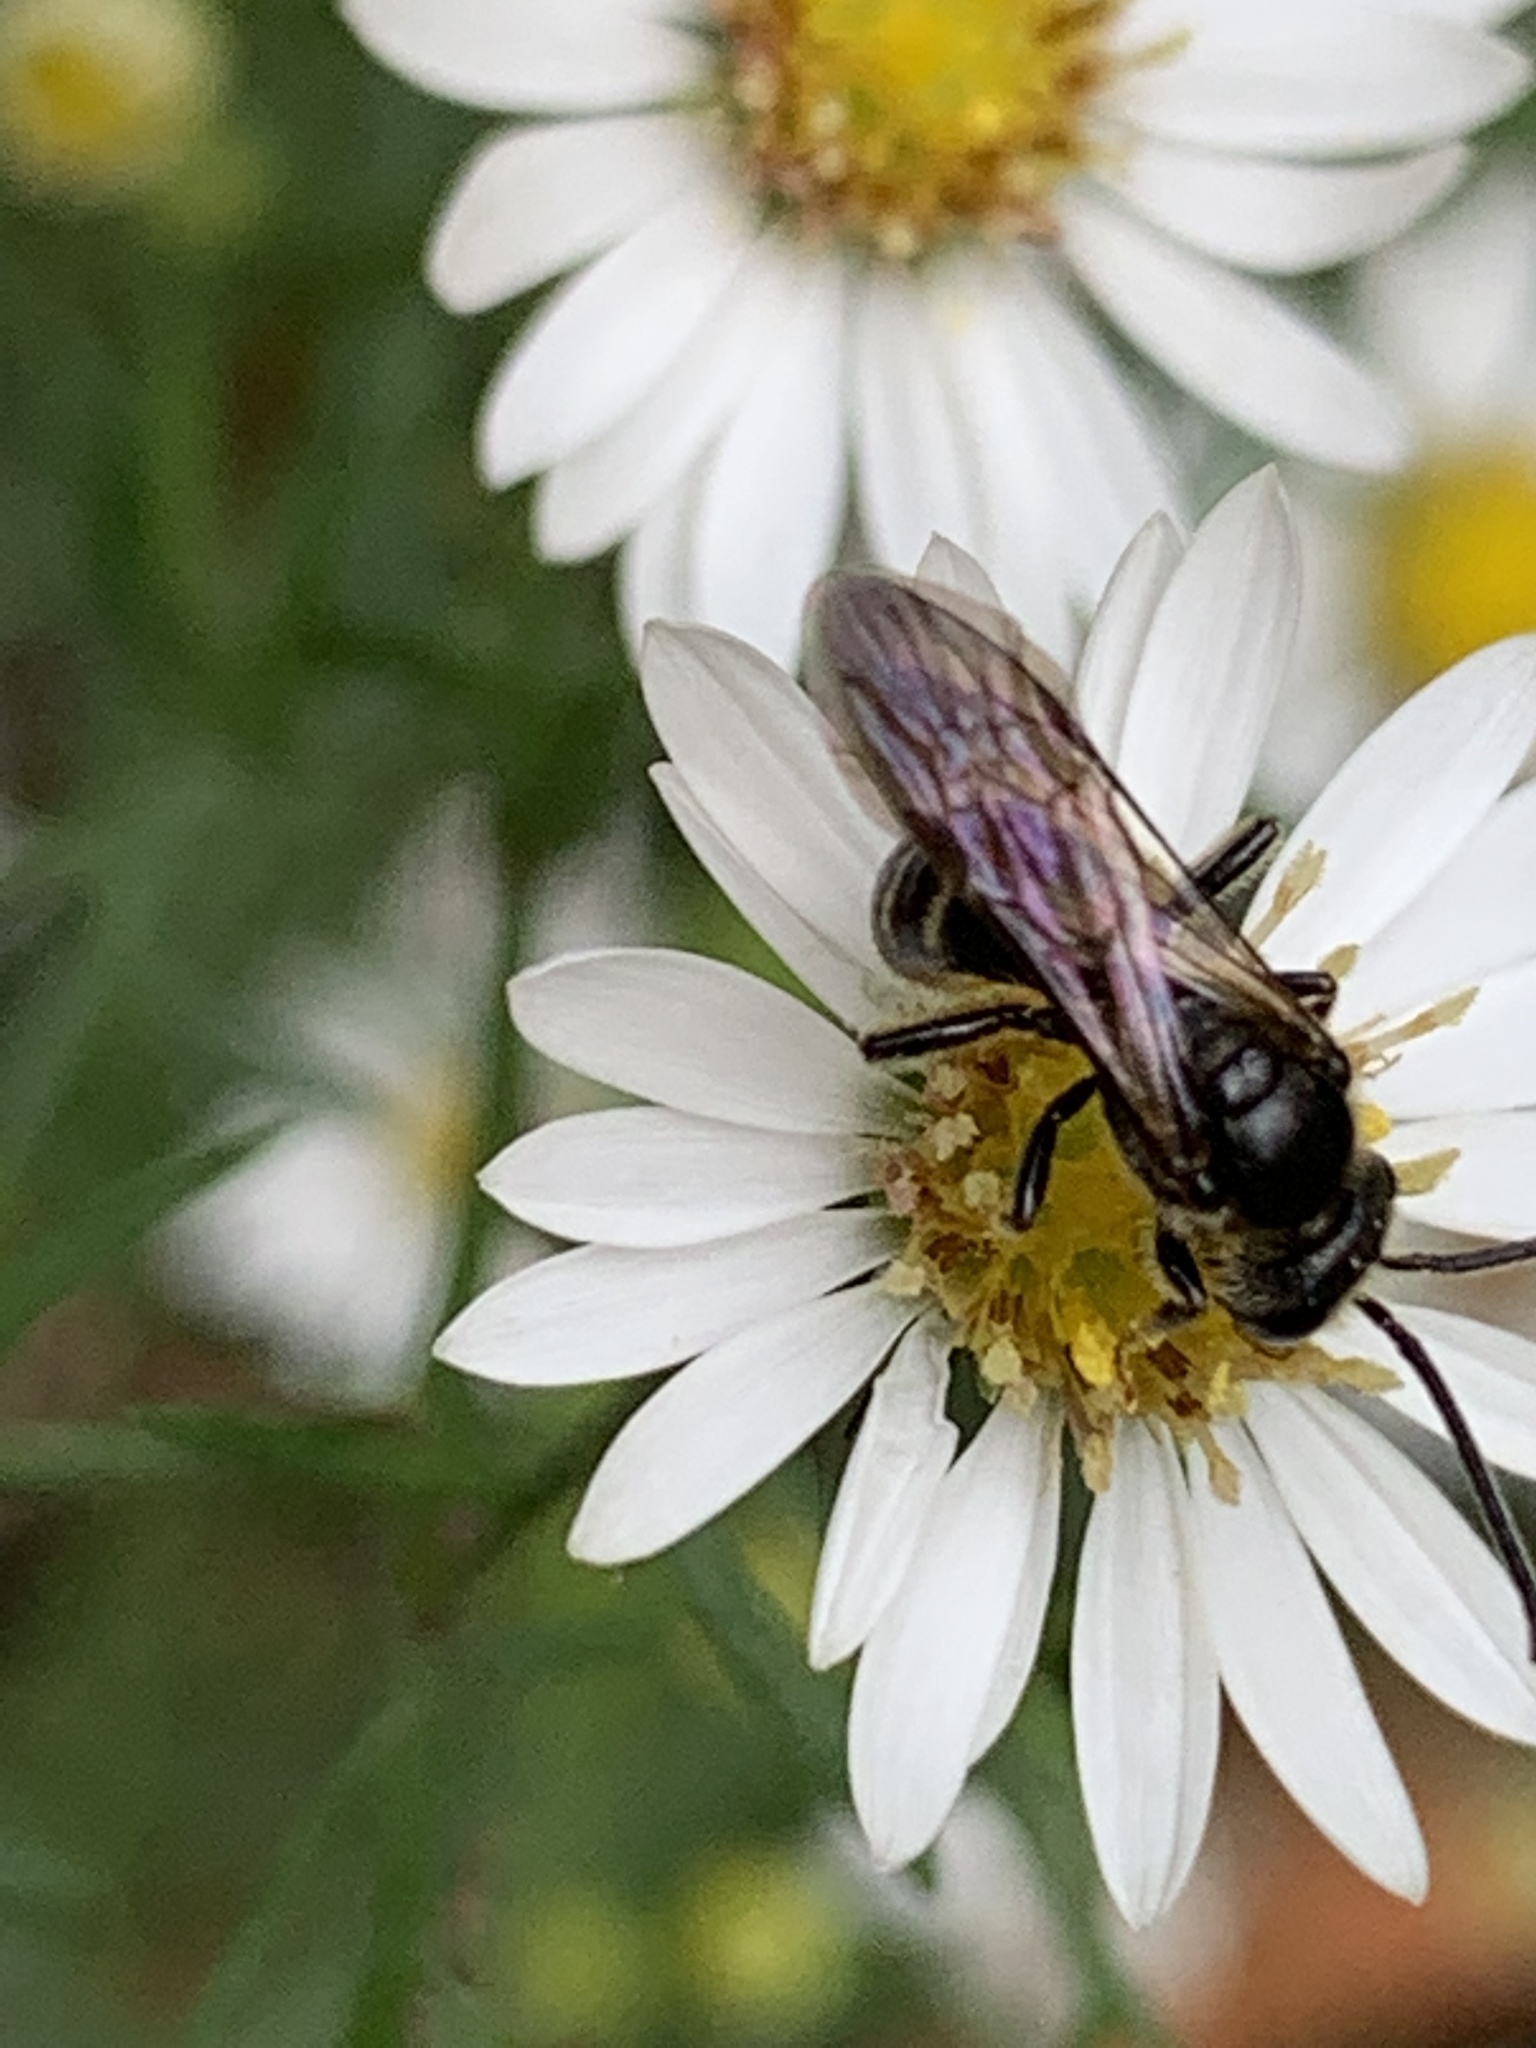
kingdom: Animalia
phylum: Arthropoda
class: Insecta
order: Hymenoptera
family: Halictidae
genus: Lasioglossum
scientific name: Lasioglossum fuscipenne
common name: Brown-winged sweat bee
